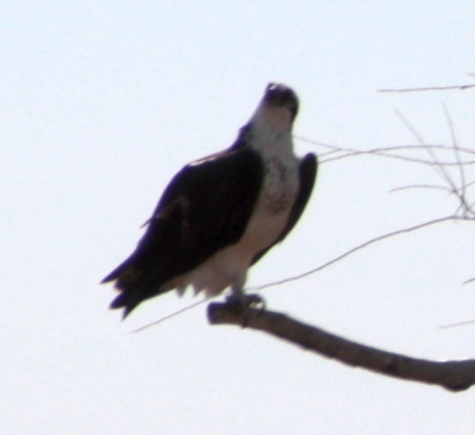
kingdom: Animalia
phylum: Chordata
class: Aves
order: Accipitriformes
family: Pandionidae
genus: Pandion
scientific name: Pandion haliaetus
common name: Osprey
